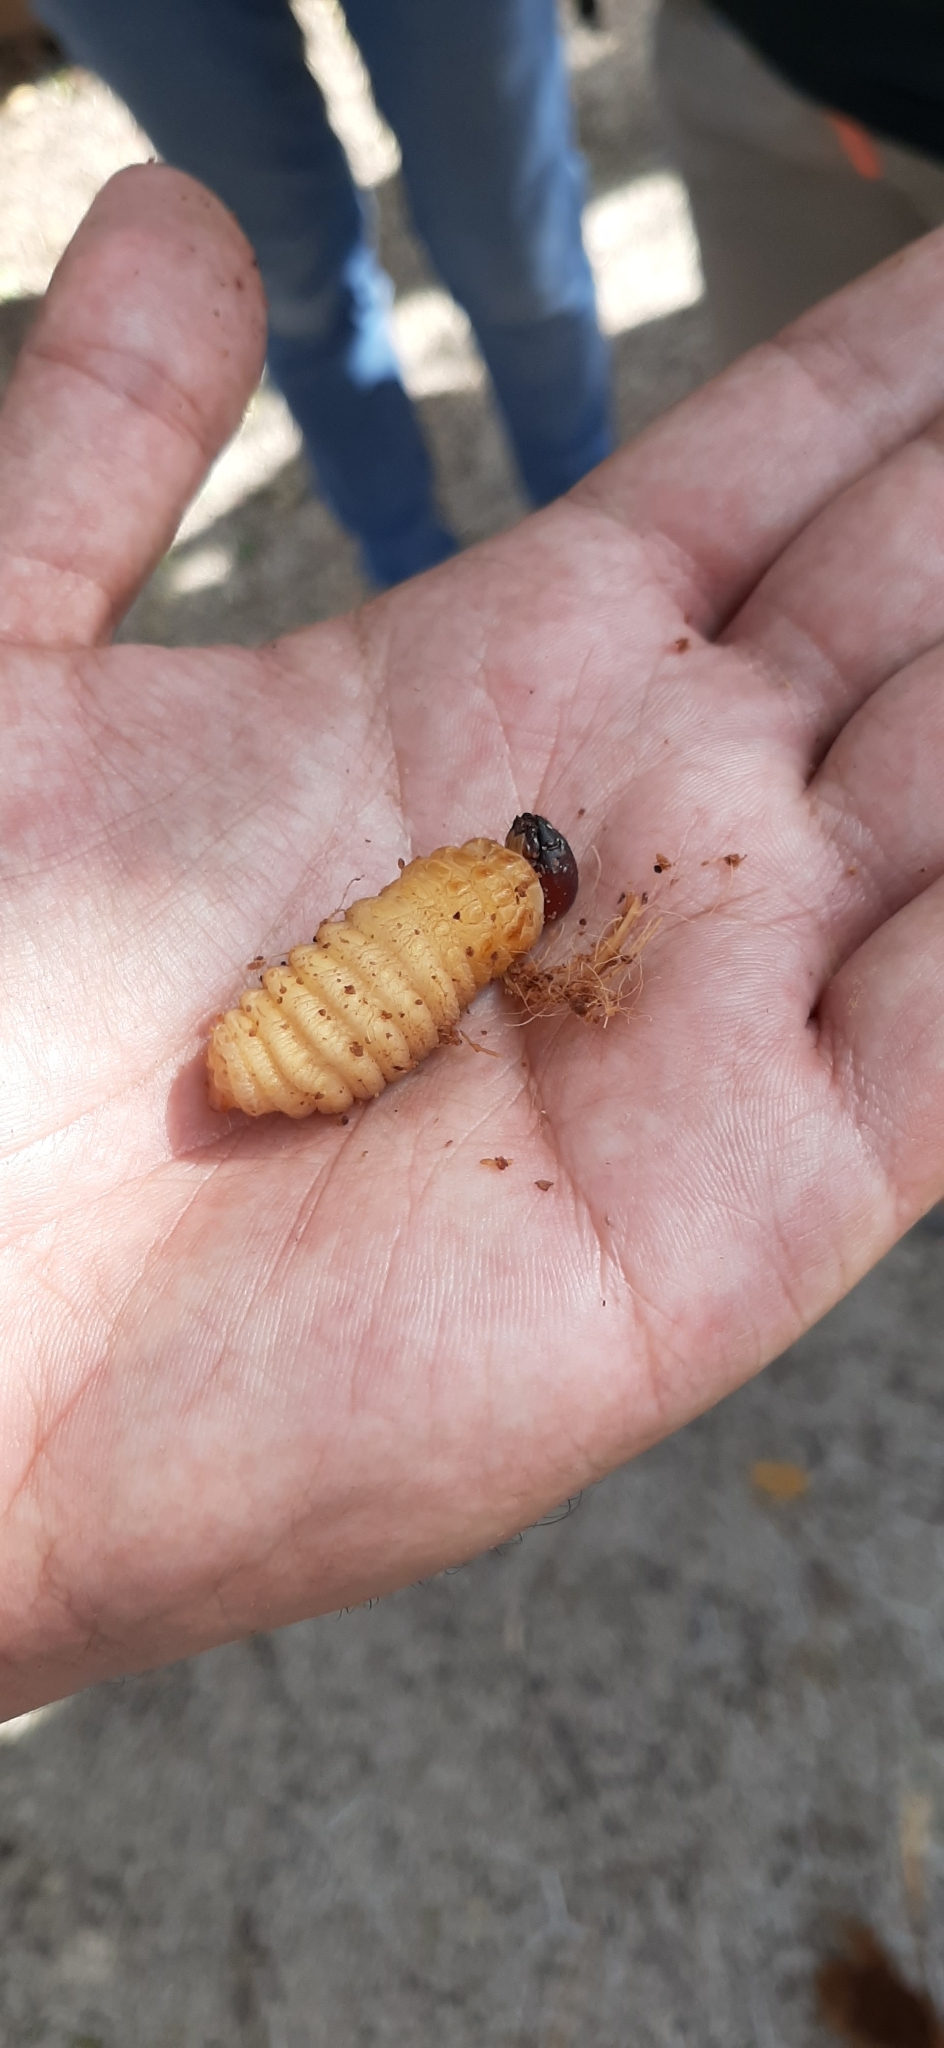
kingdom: Animalia
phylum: Arthropoda
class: Insecta
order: Coleoptera
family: Dryophthoridae
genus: Rhynchophorus
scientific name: Rhynchophorus ferrugineus
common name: Red palm weevil
